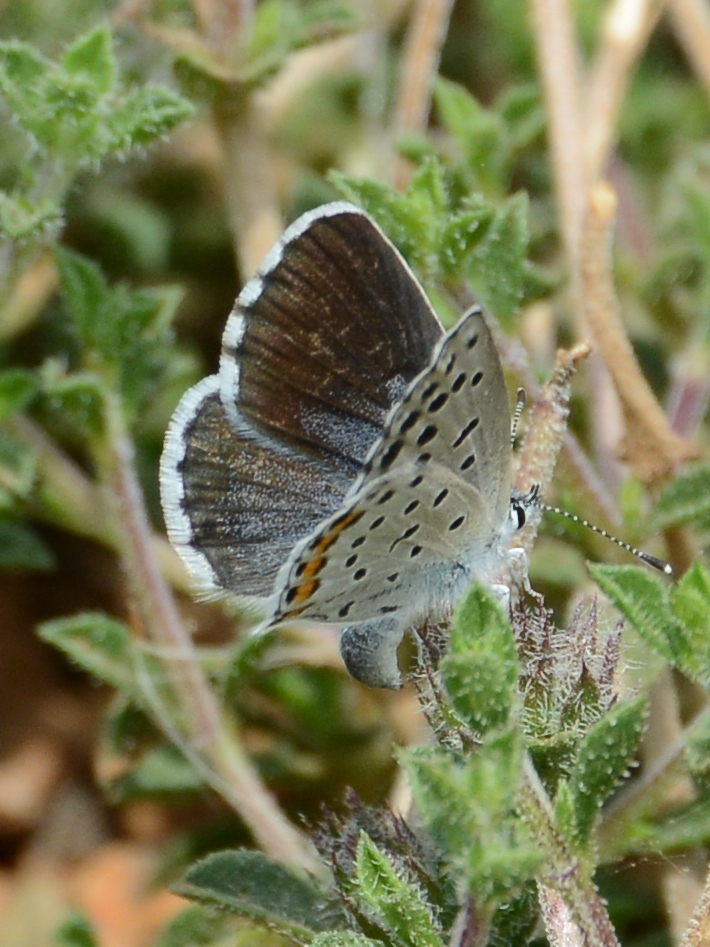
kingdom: Animalia
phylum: Arthropoda
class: Insecta
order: Lepidoptera
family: Lycaenidae
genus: Pseudophilotes
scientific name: Pseudophilotes baton
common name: Baton blue
